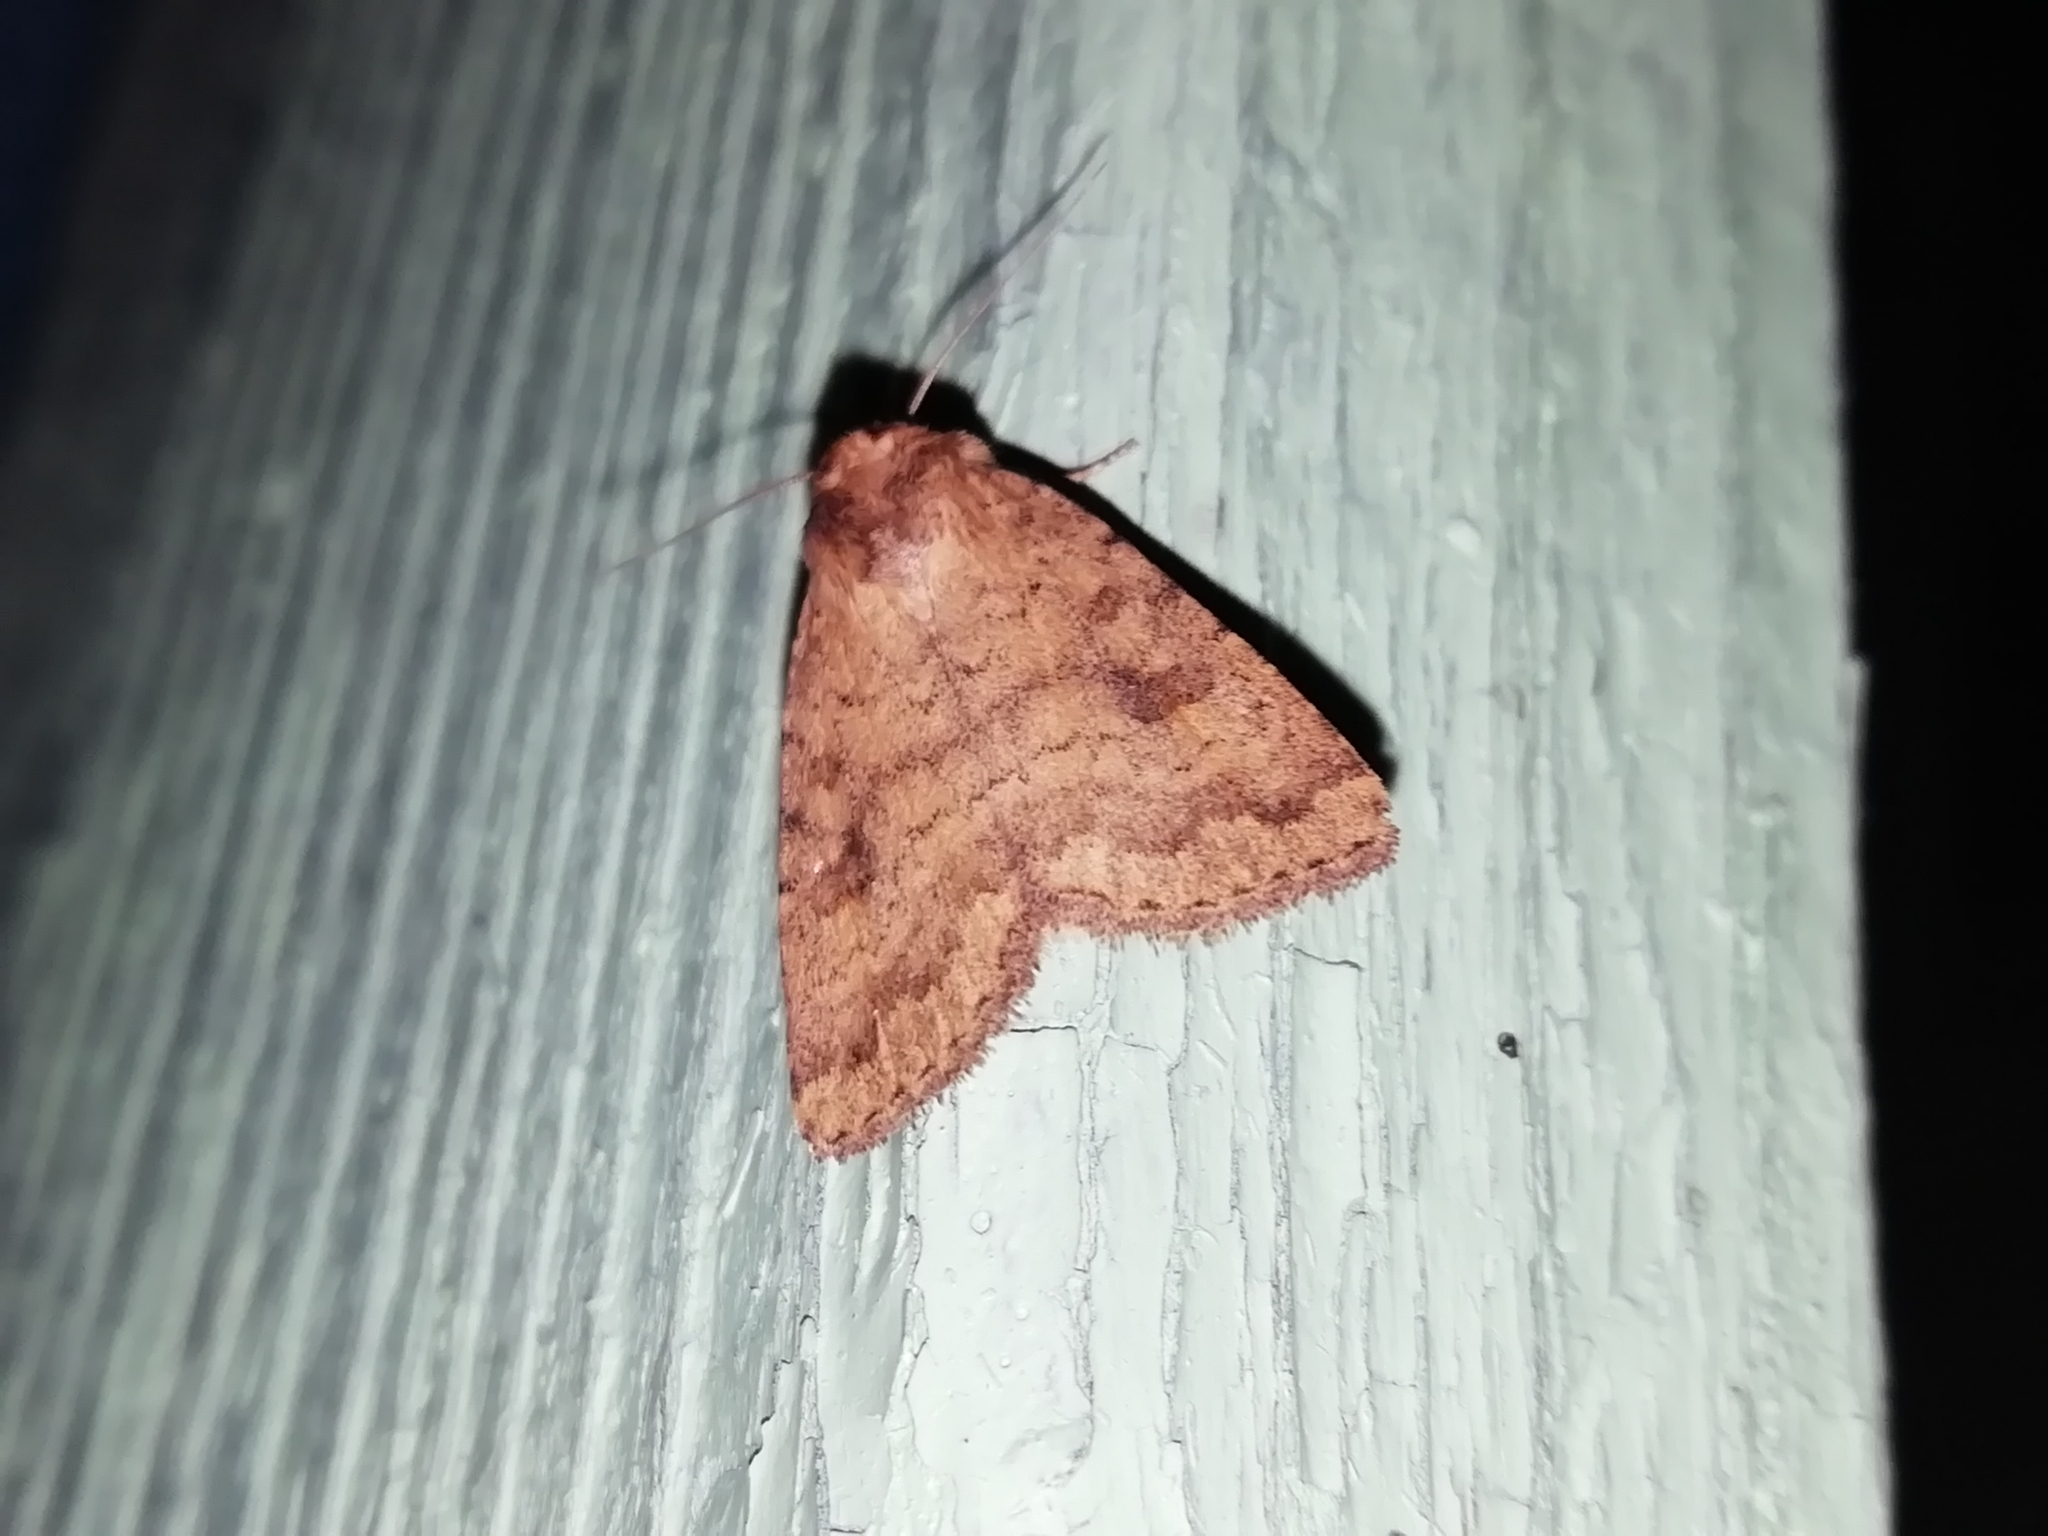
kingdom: Animalia
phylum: Arthropoda
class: Insecta
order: Lepidoptera
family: Noctuidae
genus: Caradrina
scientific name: Caradrina morpheus
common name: Mottled rustic
